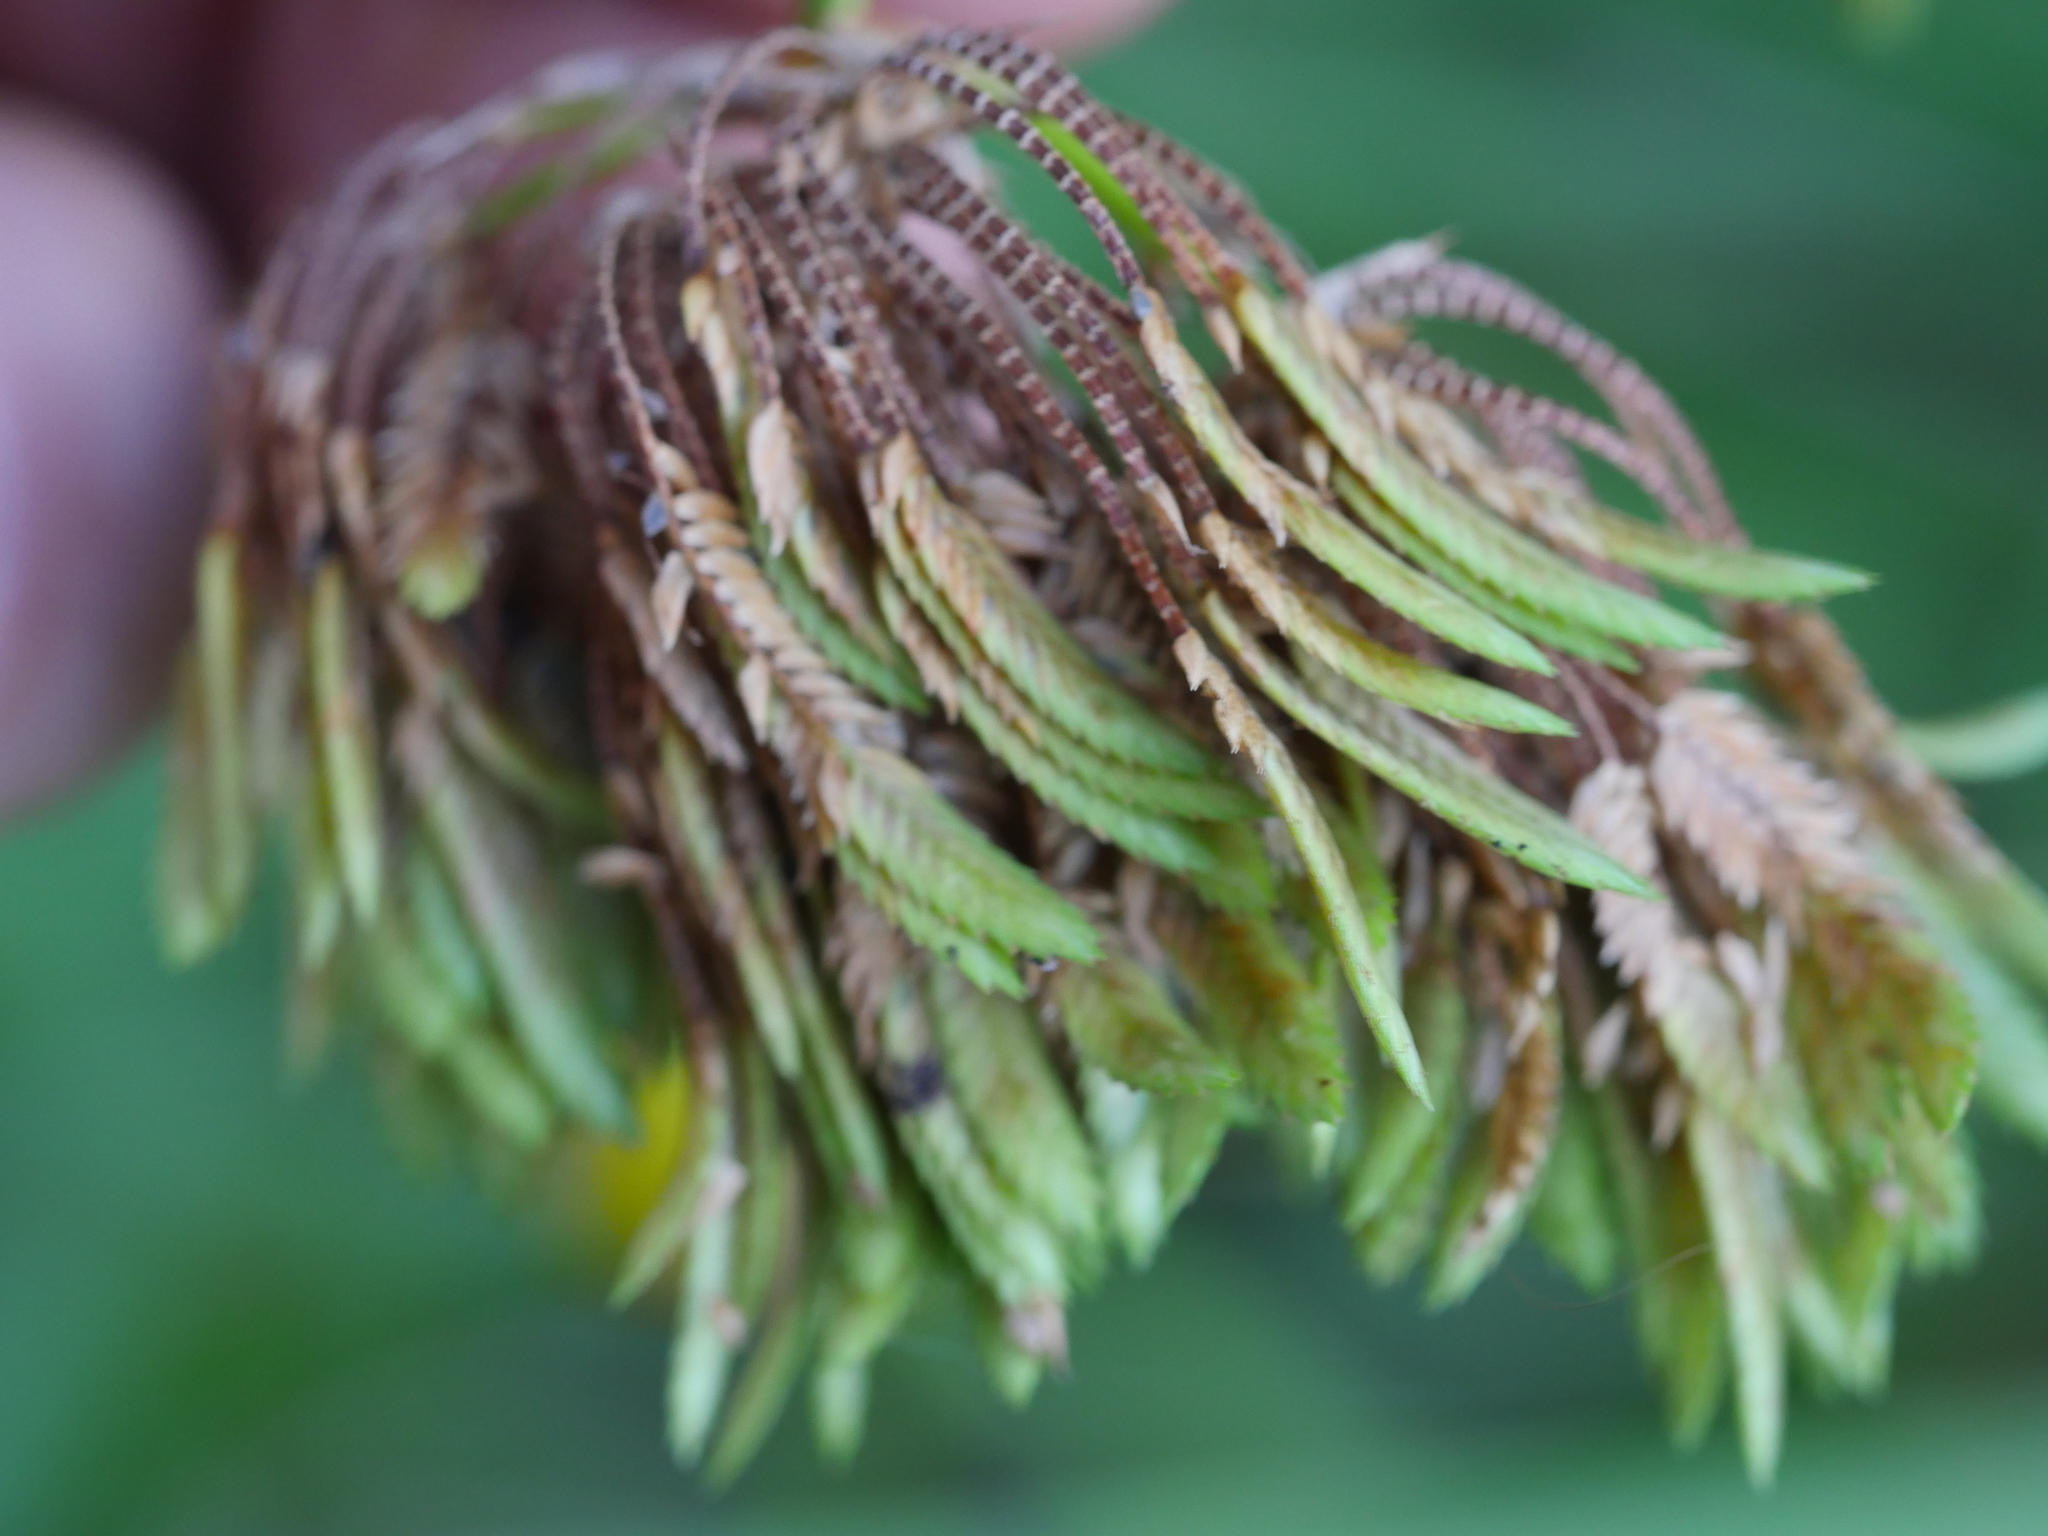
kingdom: Plantae
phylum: Tracheophyta
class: Liliopsida
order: Poales
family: Cyperaceae
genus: Cyperus
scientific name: Cyperus eragrostis
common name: Tall flatsedge
